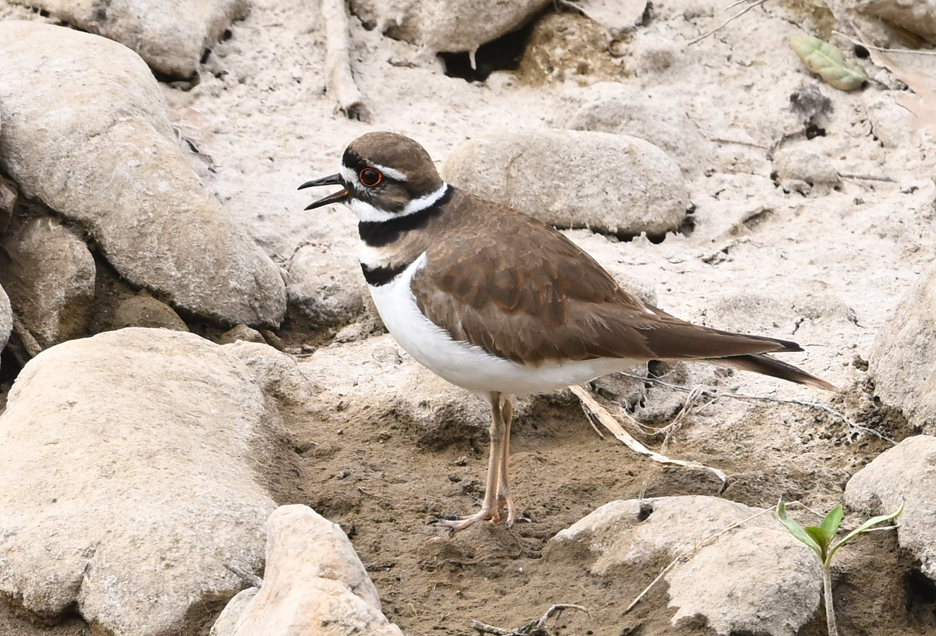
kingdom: Animalia
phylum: Chordata
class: Aves
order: Charadriiformes
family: Charadriidae
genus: Charadrius
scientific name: Charadrius vociferus
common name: Killdeer
